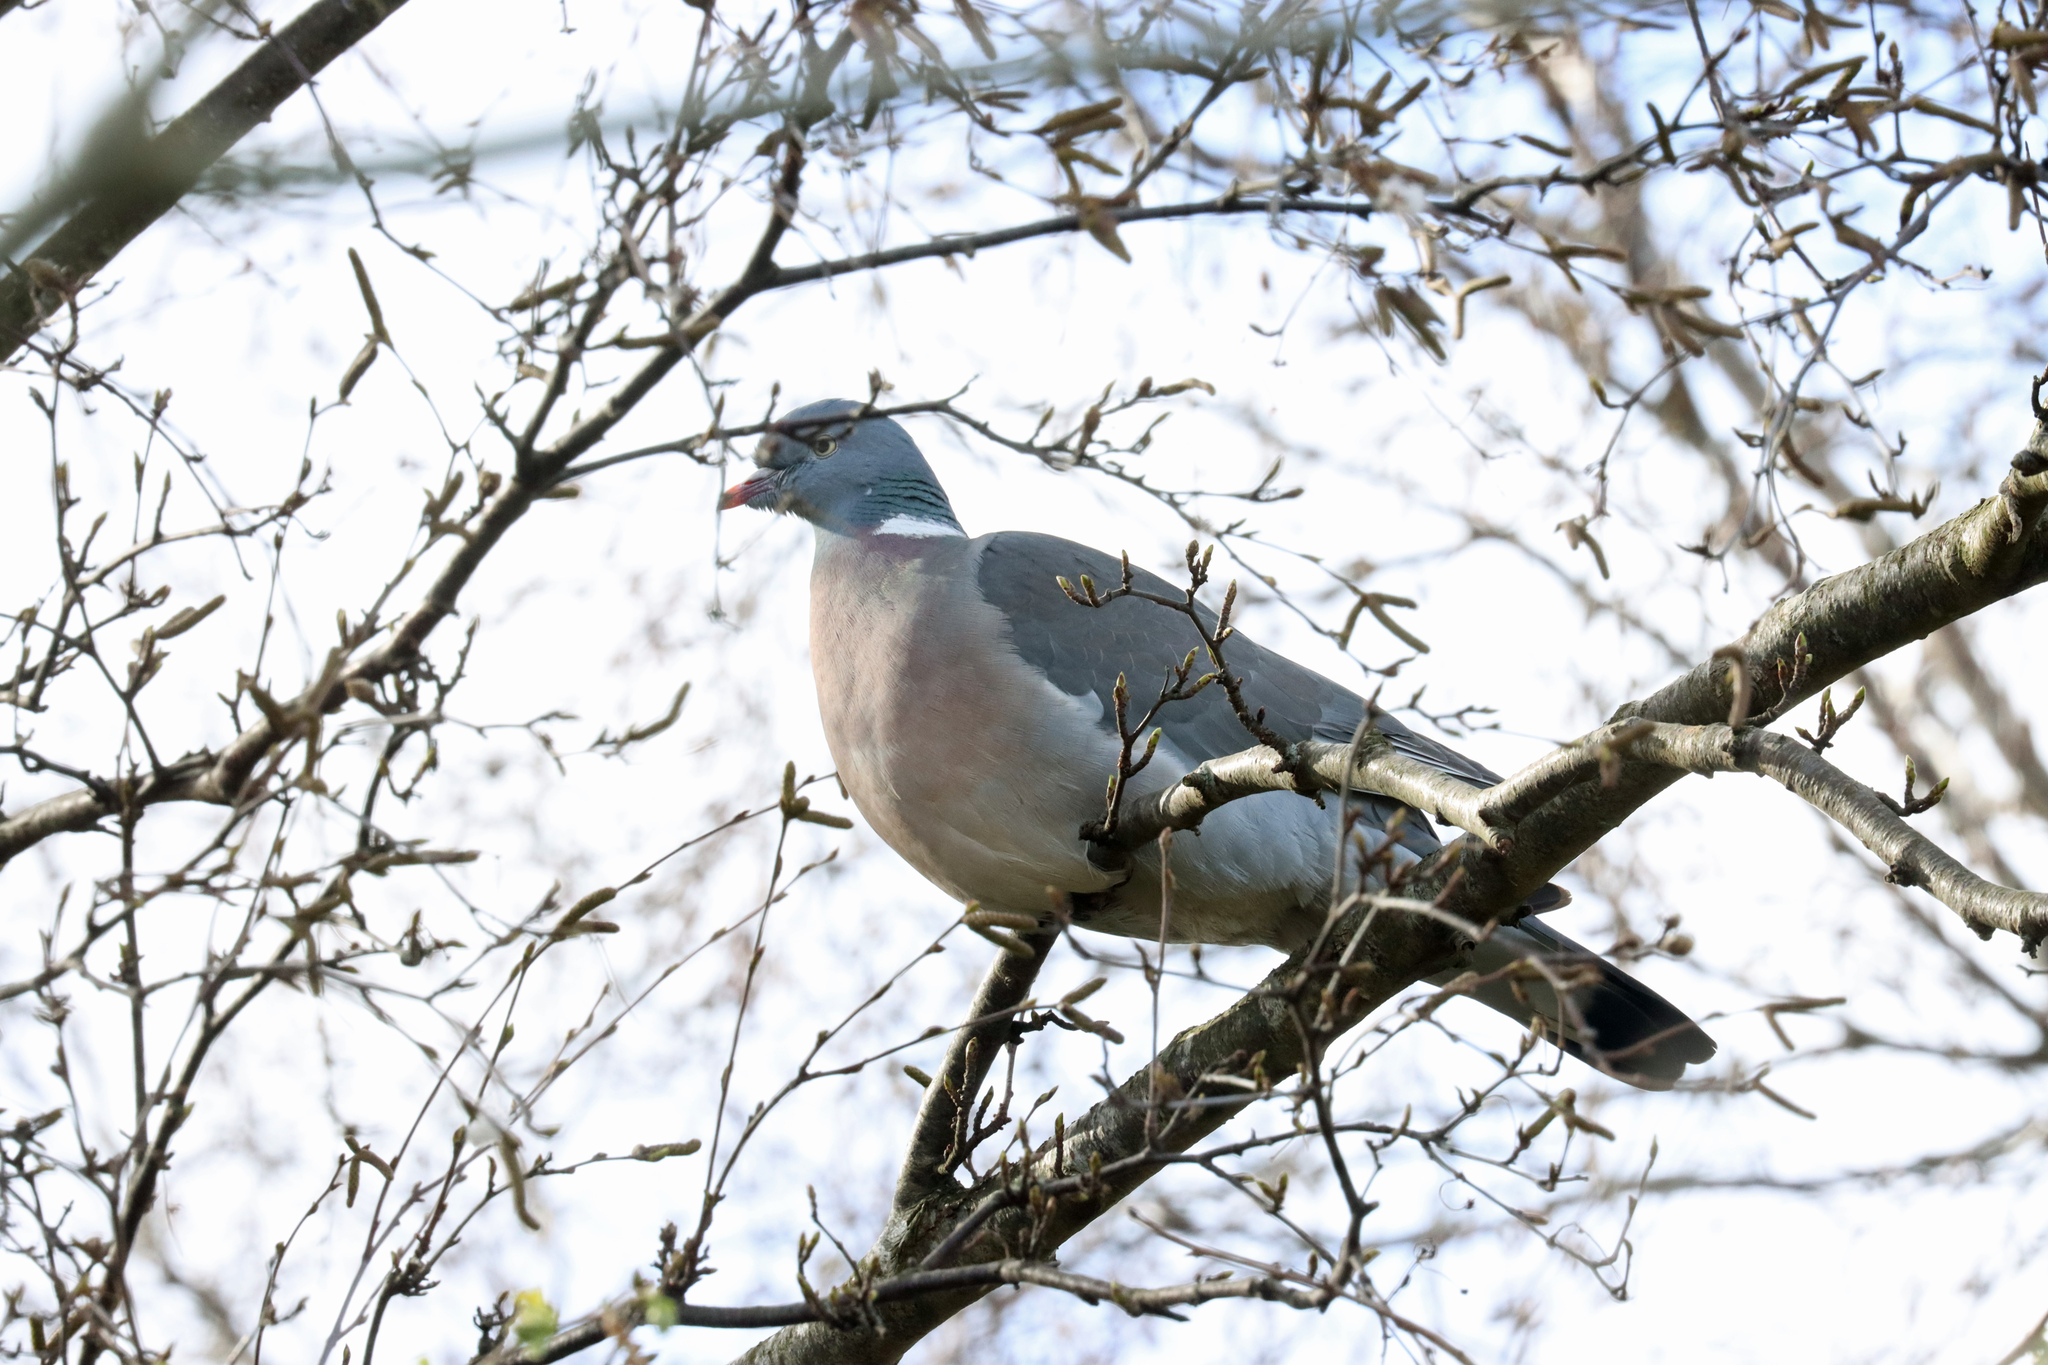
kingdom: Animalia
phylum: Chordata
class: Aves
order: Columbiformes
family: Columbidae
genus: Columba
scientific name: Columba palumbus
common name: Common wood pigeon
